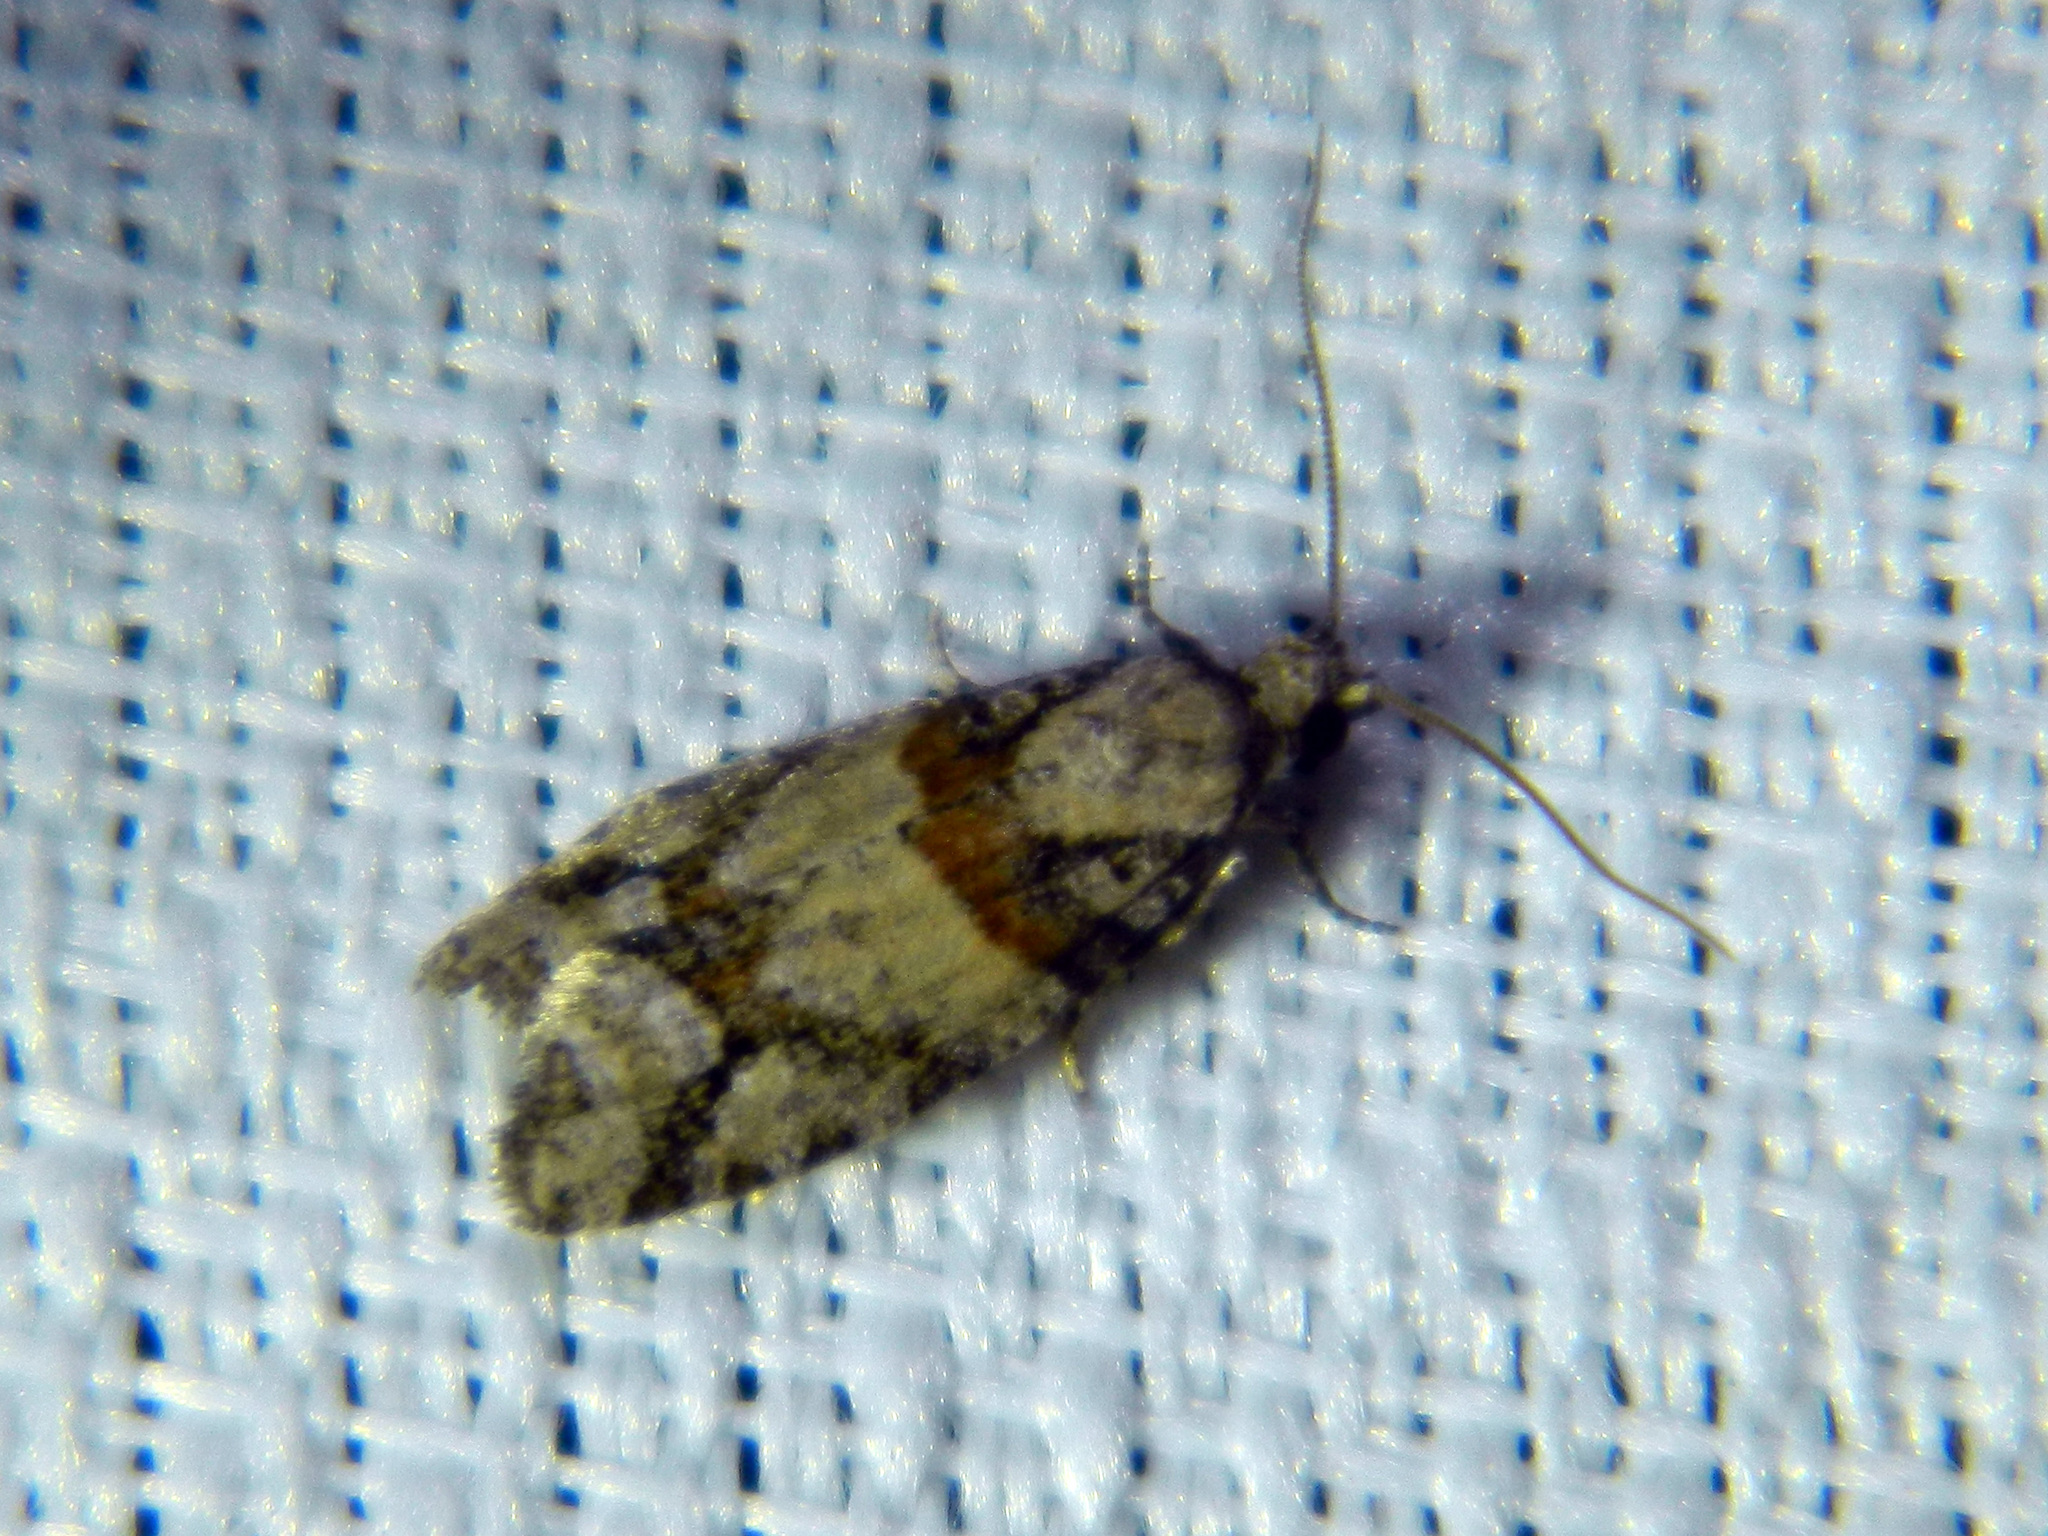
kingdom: Animalia
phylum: Arthropoda
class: Insecta
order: Lepidoptera
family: Tortricidae
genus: Epinotia
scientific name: Epinotia radicana
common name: Red-striped needleworm moth
